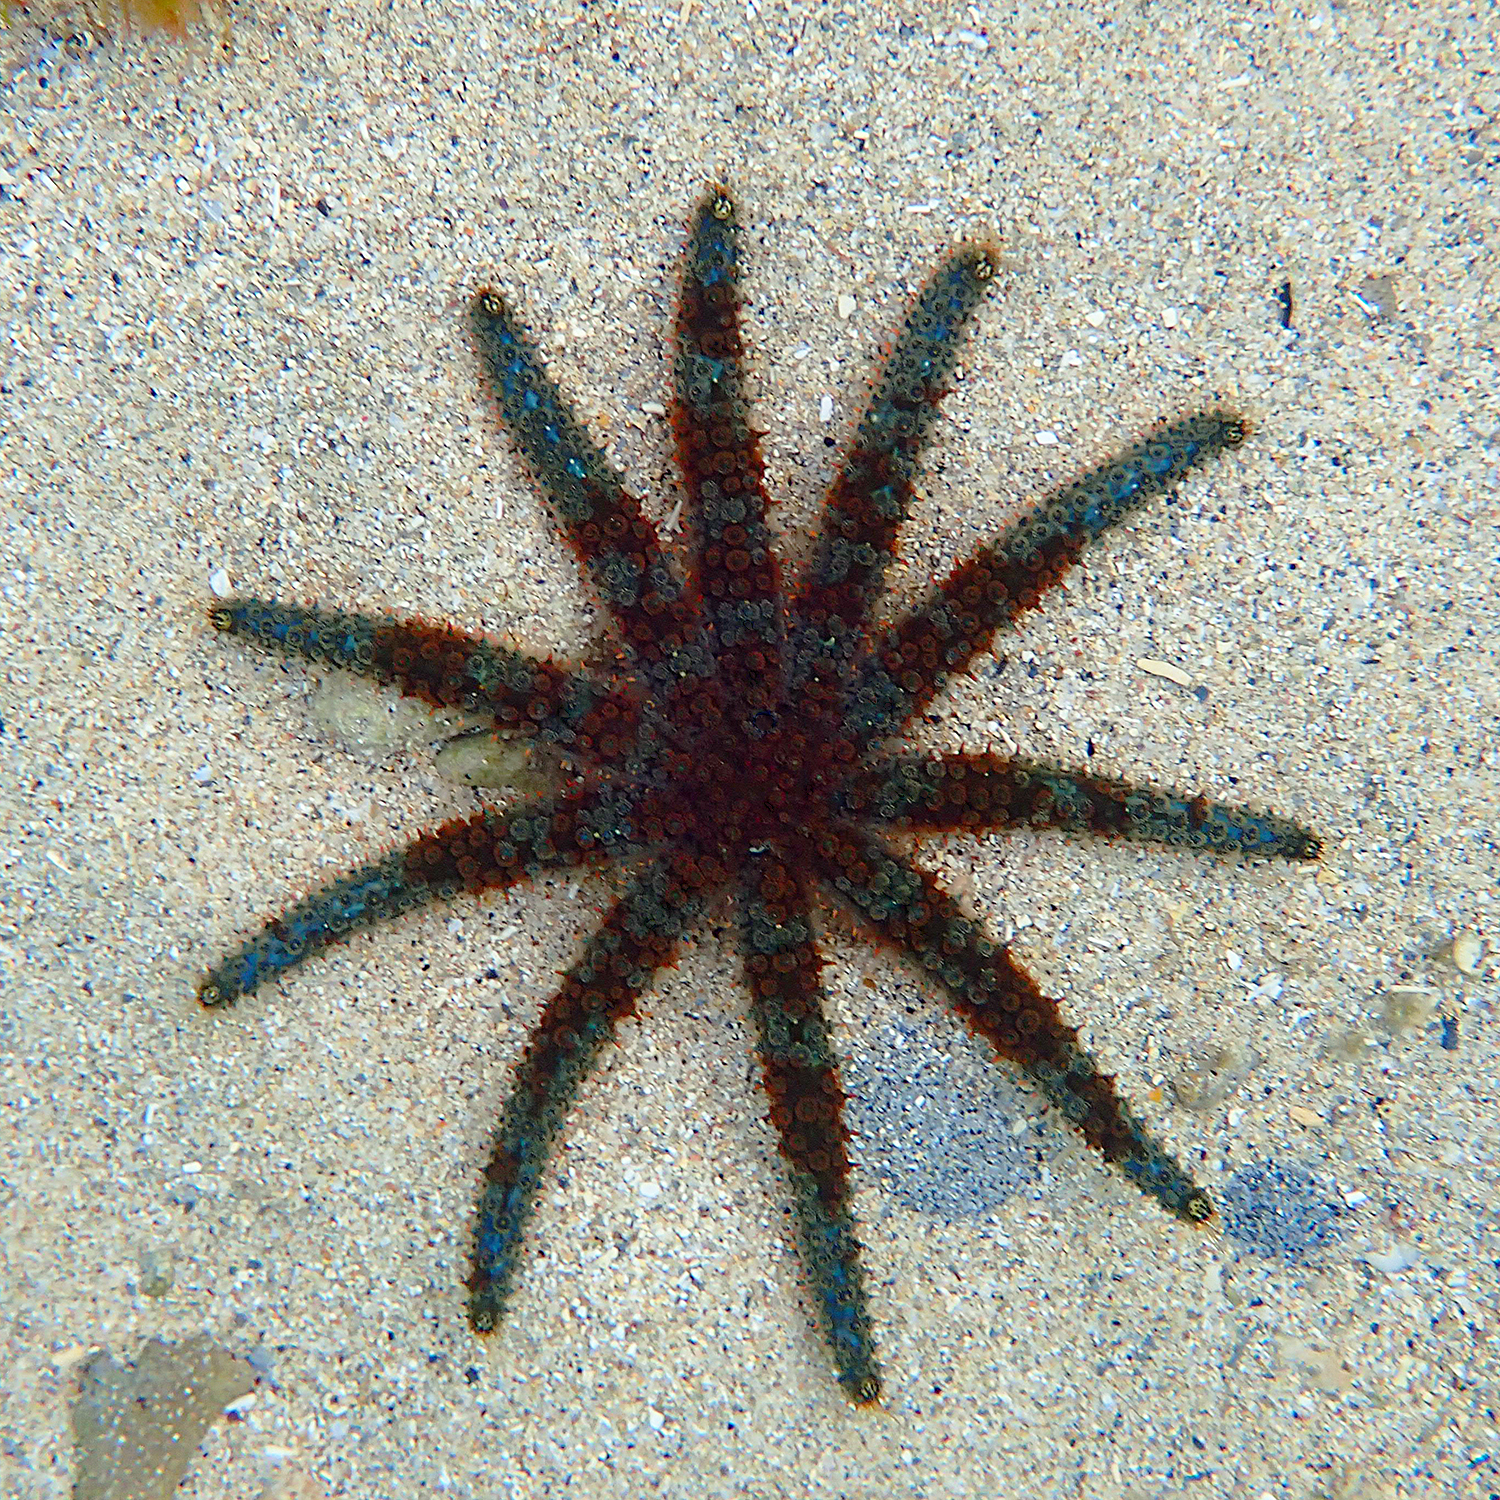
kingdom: Animalia
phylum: Echinodermata
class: Asteroidea
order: Forcipulatida
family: Asteriidae
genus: Coscinasterias
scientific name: Coscinasterias muricata
